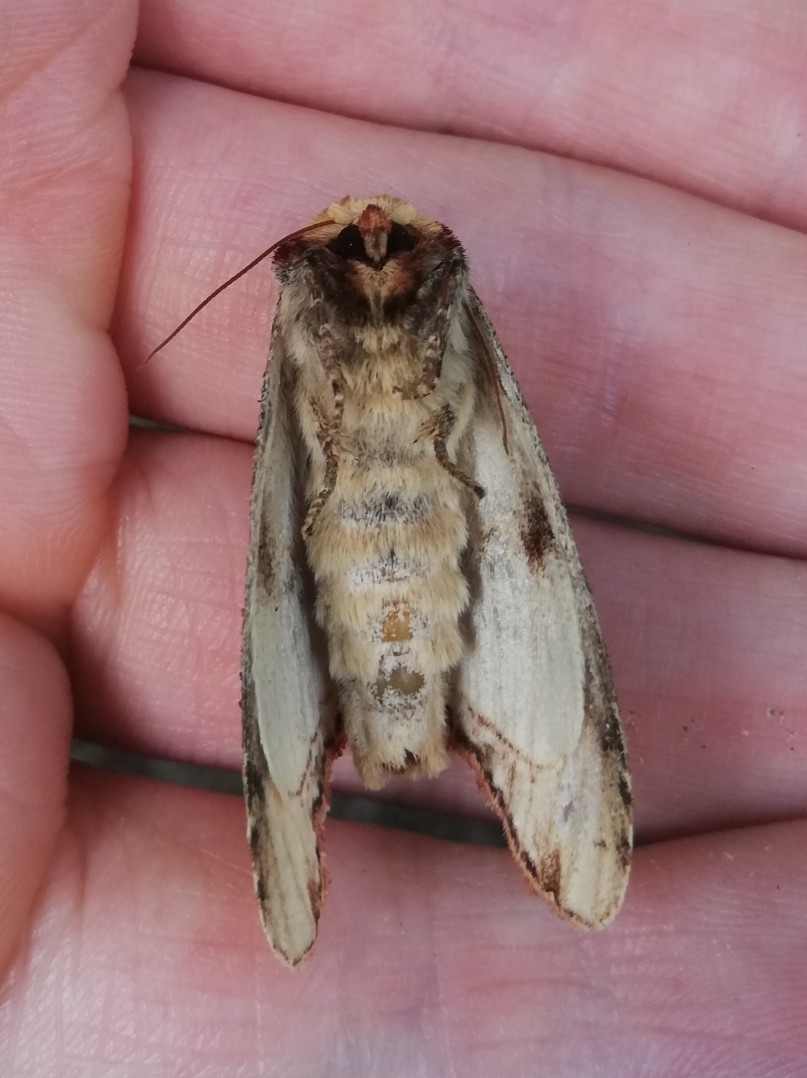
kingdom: Animalia
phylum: Arthropoda
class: Insecta
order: Lepidoptera
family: Notodontidae
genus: Phalera
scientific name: Phalera bucephala
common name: Buff-tip
